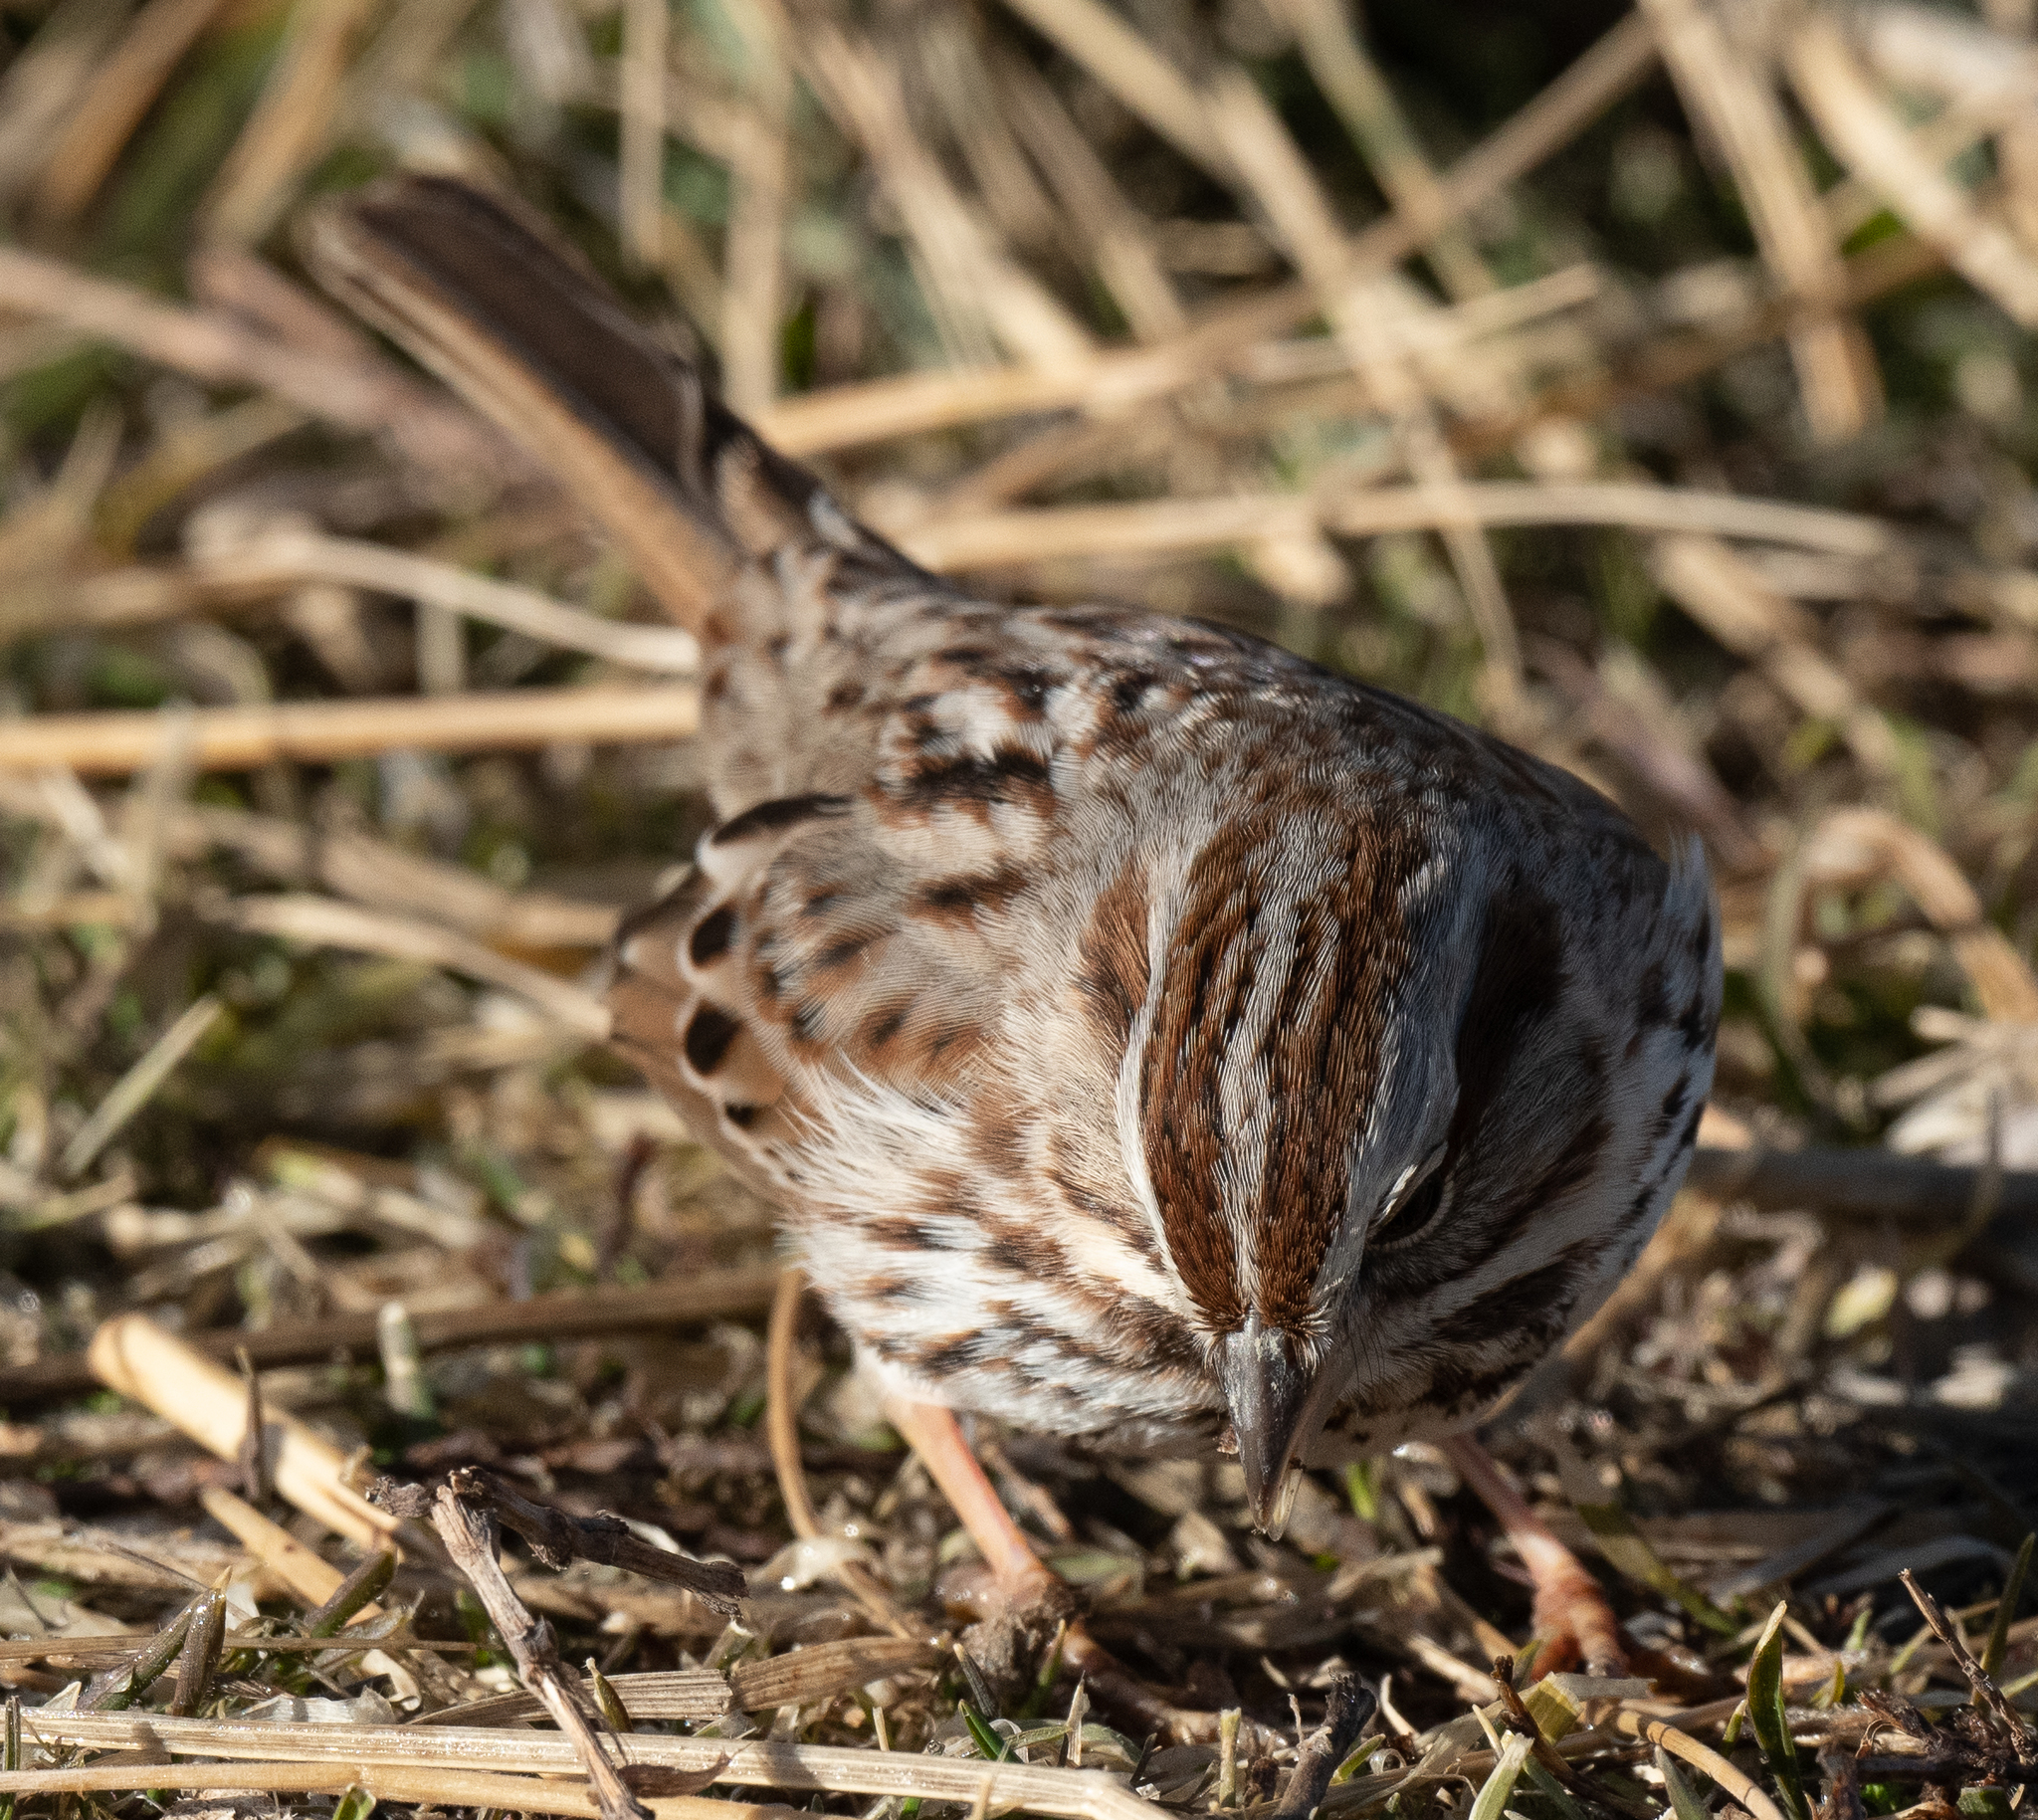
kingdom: Animalia
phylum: Chordata
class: Aves
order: Passeriformes
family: Passerellidae
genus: Melospiza
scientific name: Melospiza melodia
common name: Song sparrow
